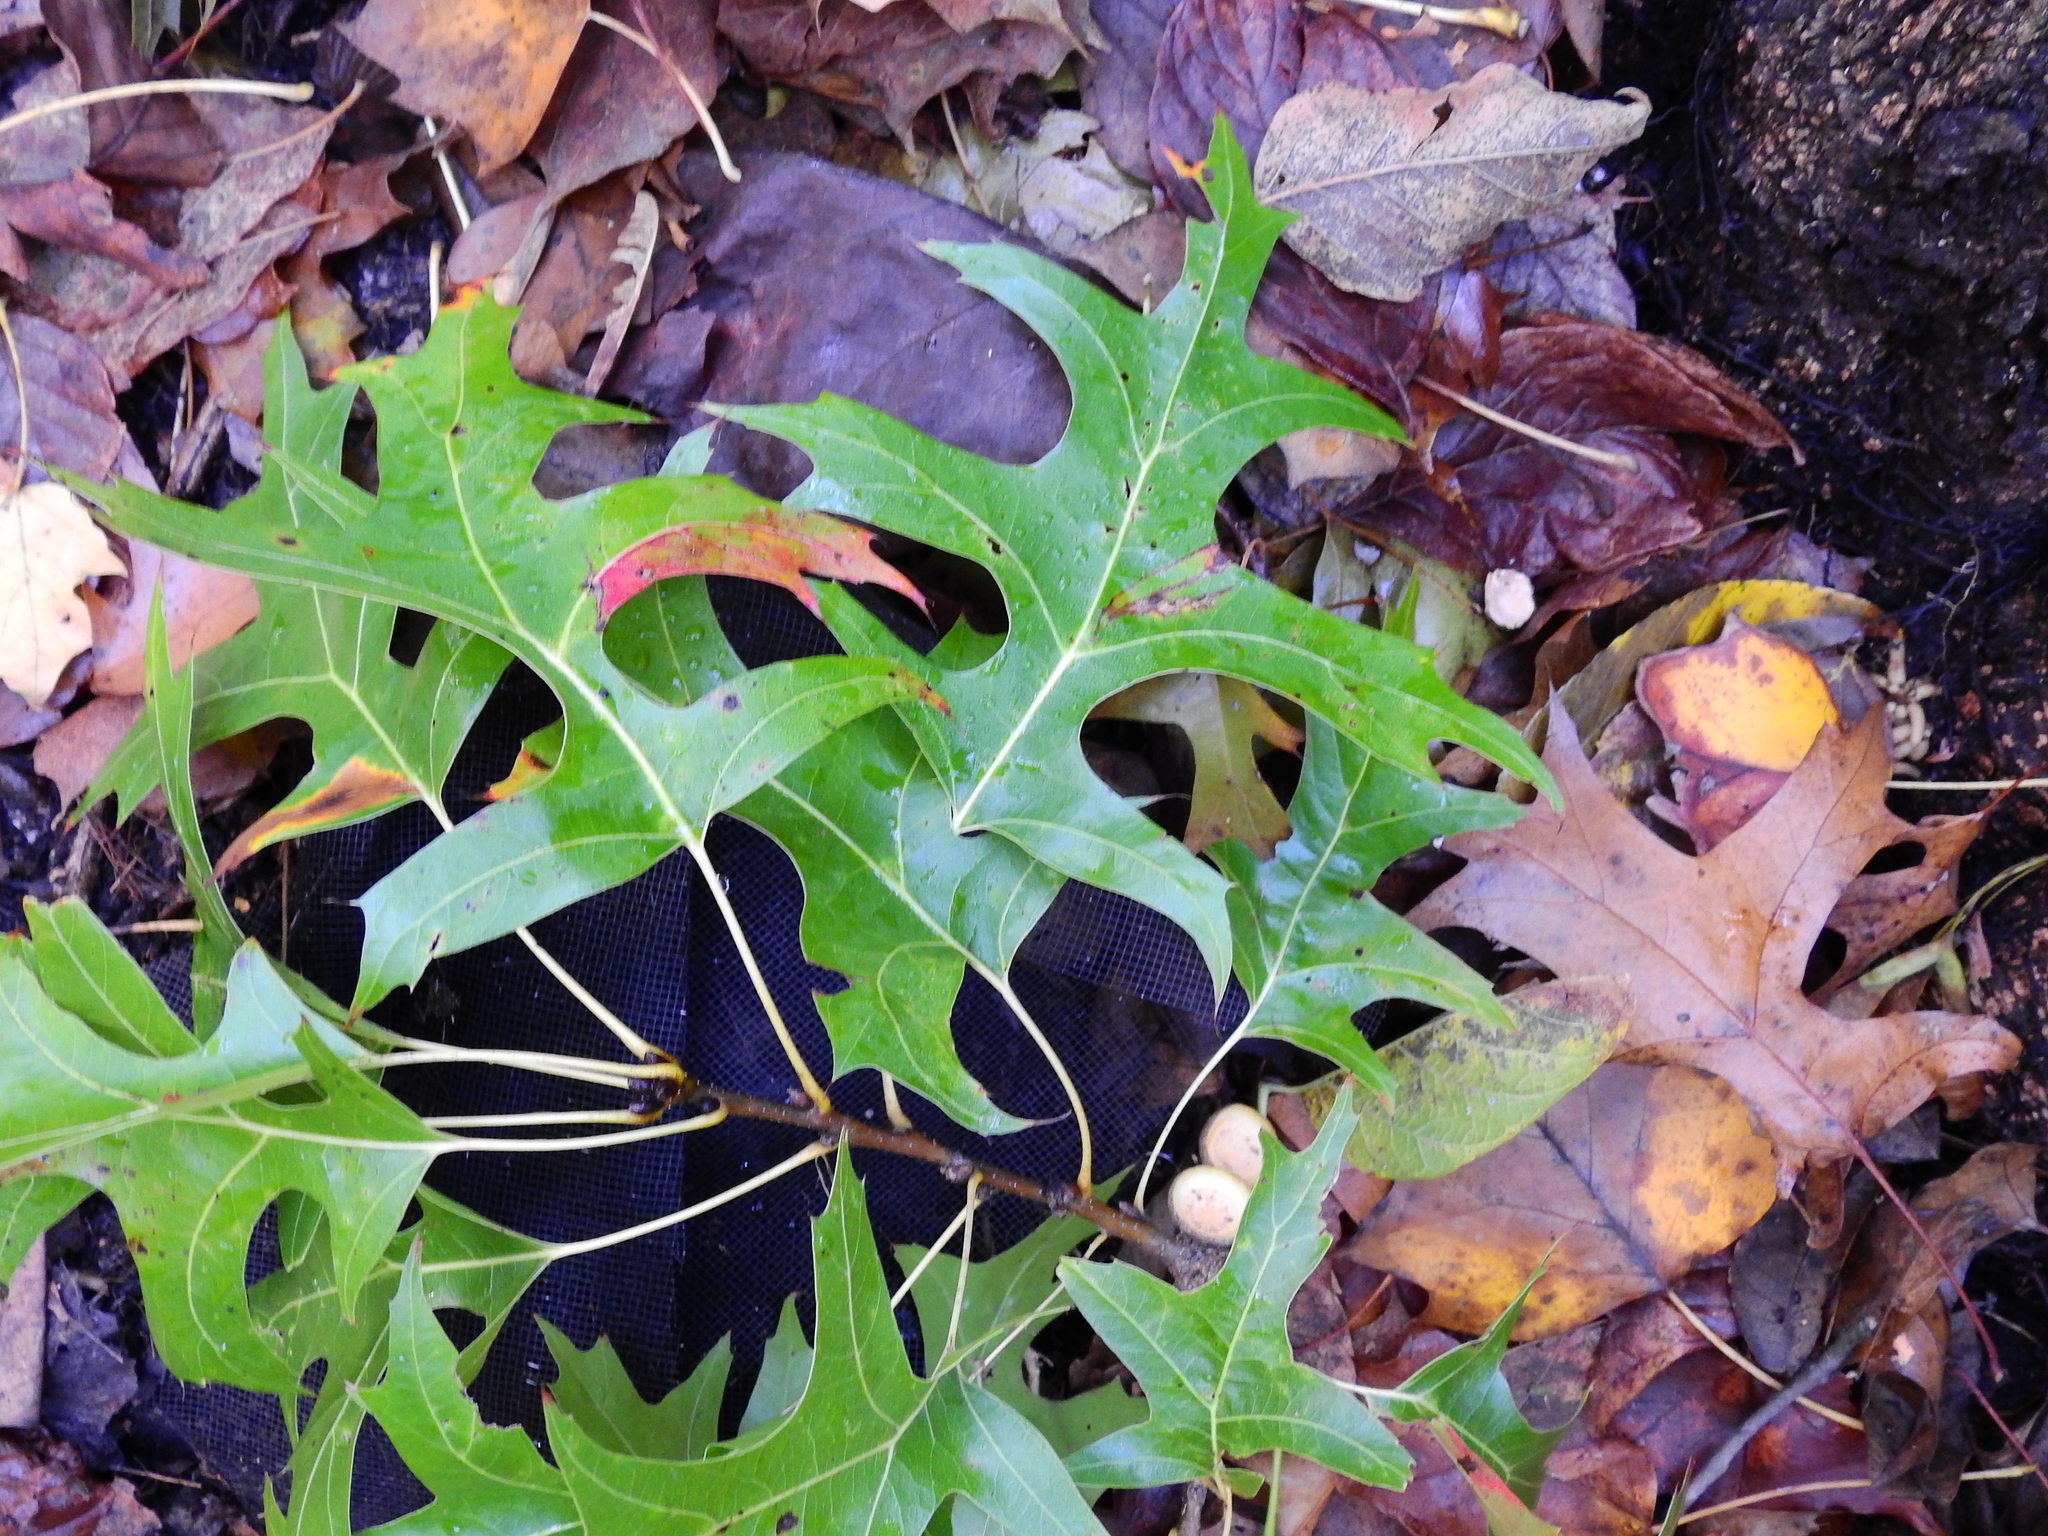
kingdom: Plantae
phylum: Tracheophyta
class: Magnoliopsida
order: Fagales
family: Fagaceae
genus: Quercus
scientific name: Quercus palustris
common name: Pin oak
